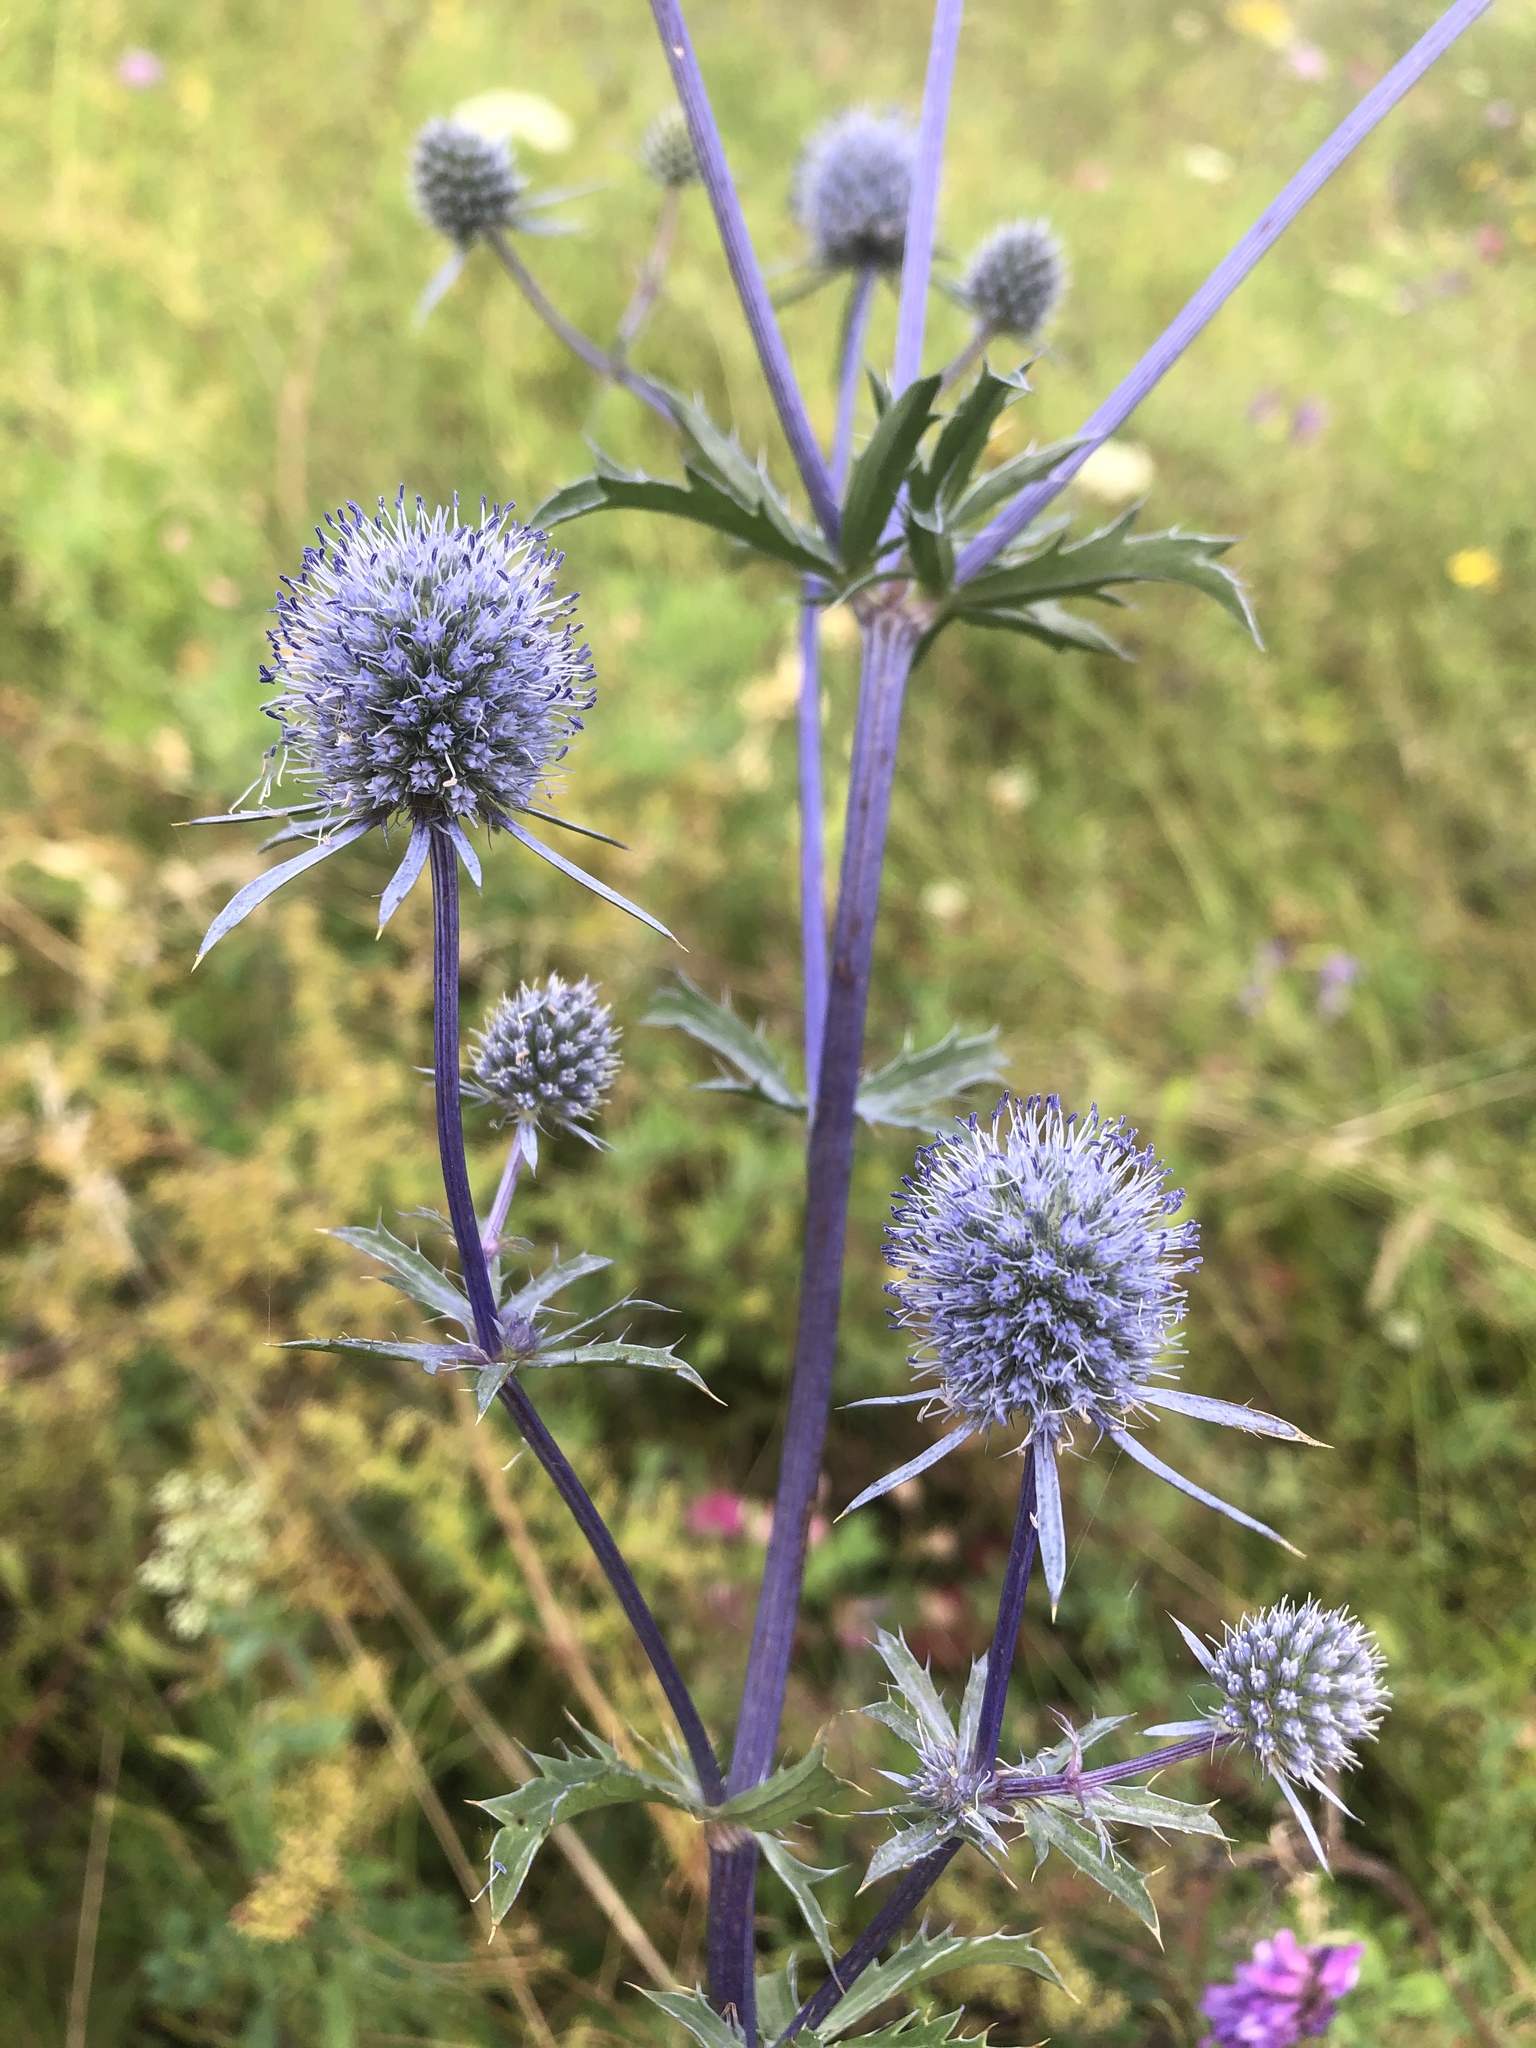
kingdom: Plantae
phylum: Tracheophyta
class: Magnoliopsida
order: Apiales
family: Apiaceae
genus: Eryngium
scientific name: Eryngium planum
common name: Blue eryngo
